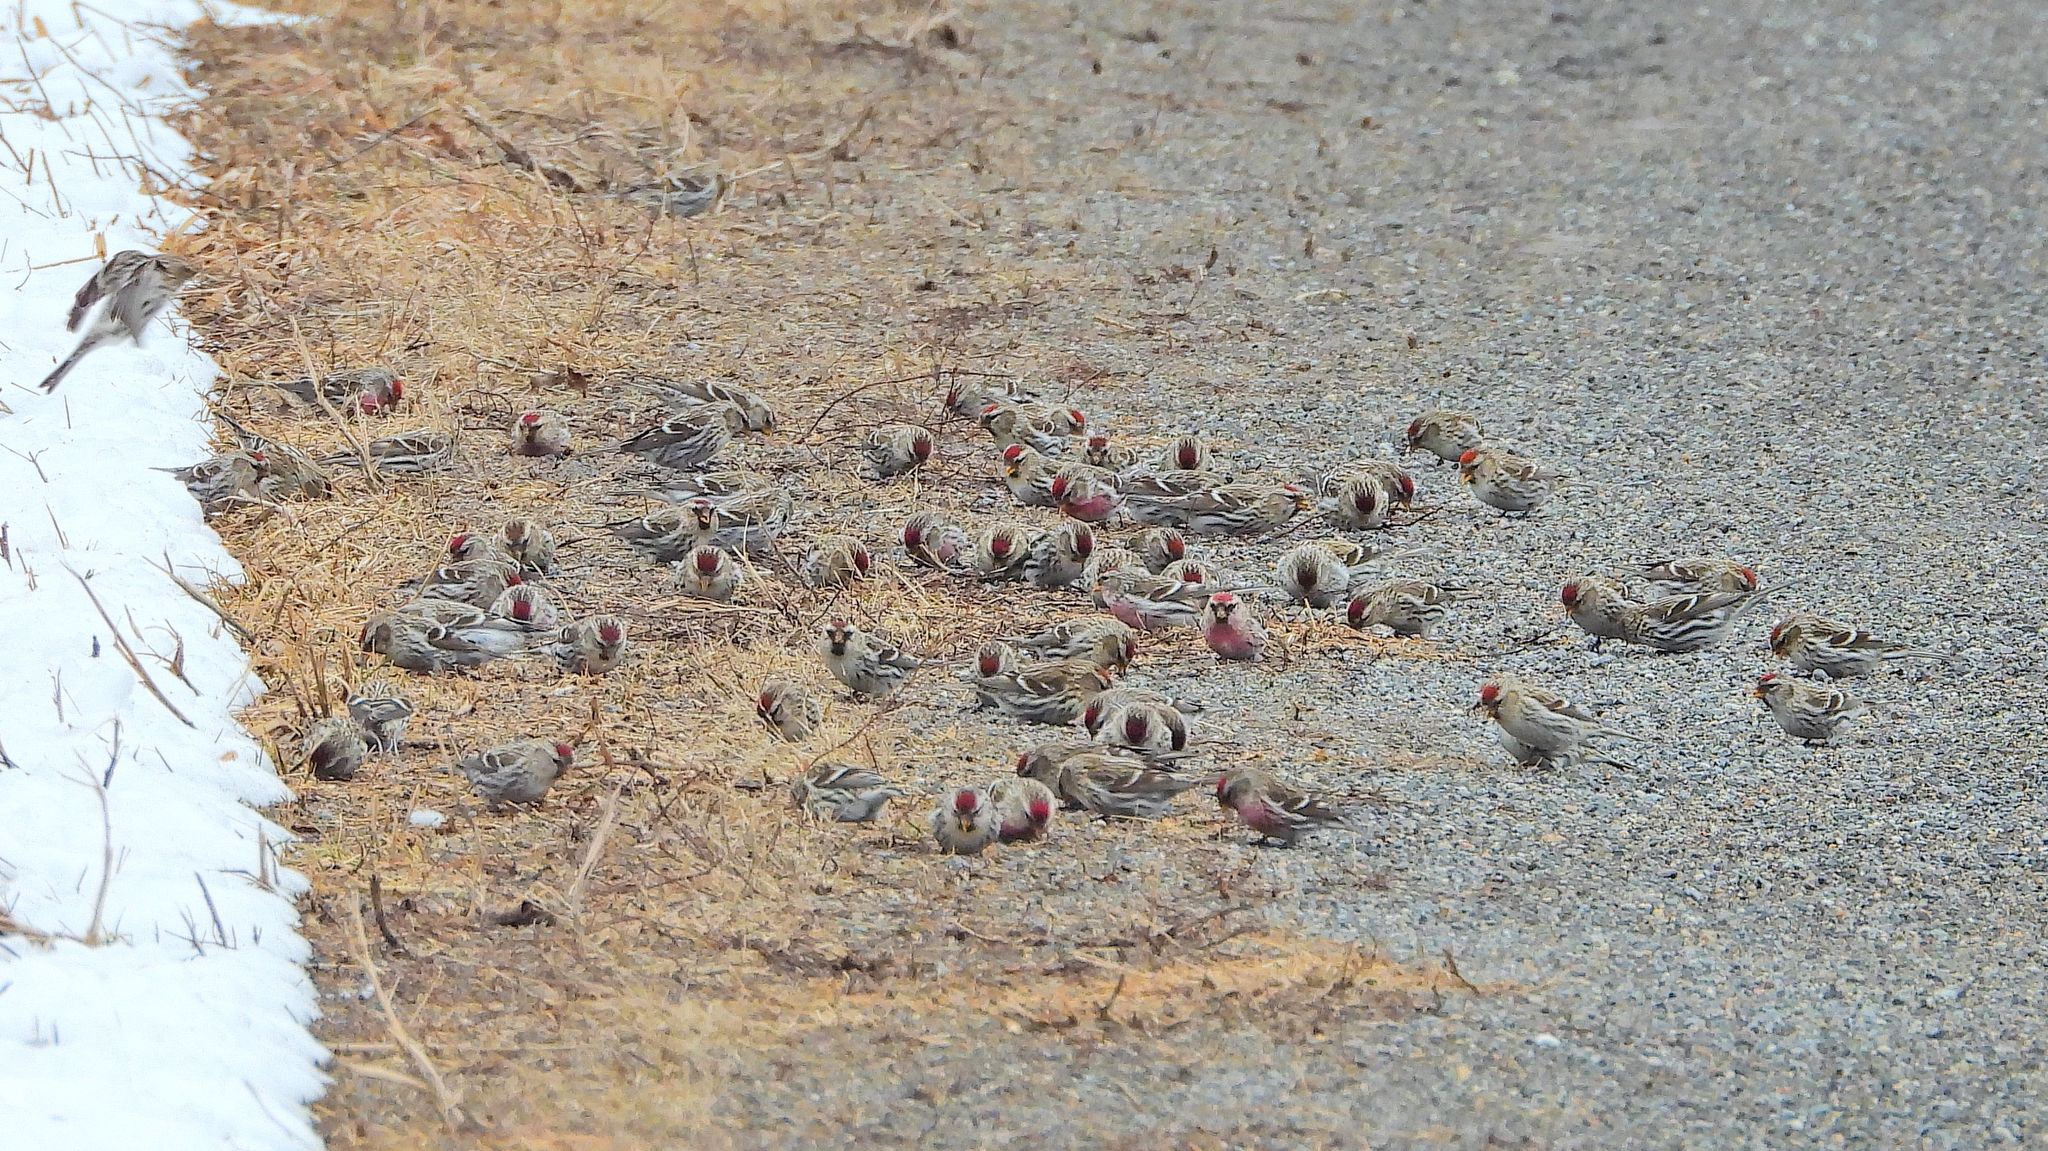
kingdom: Animalia
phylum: Chordata
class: Aves
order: Passeriformes
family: Fringillidae
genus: Acanthis
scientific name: Acanthis flammea
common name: Common redpoll
